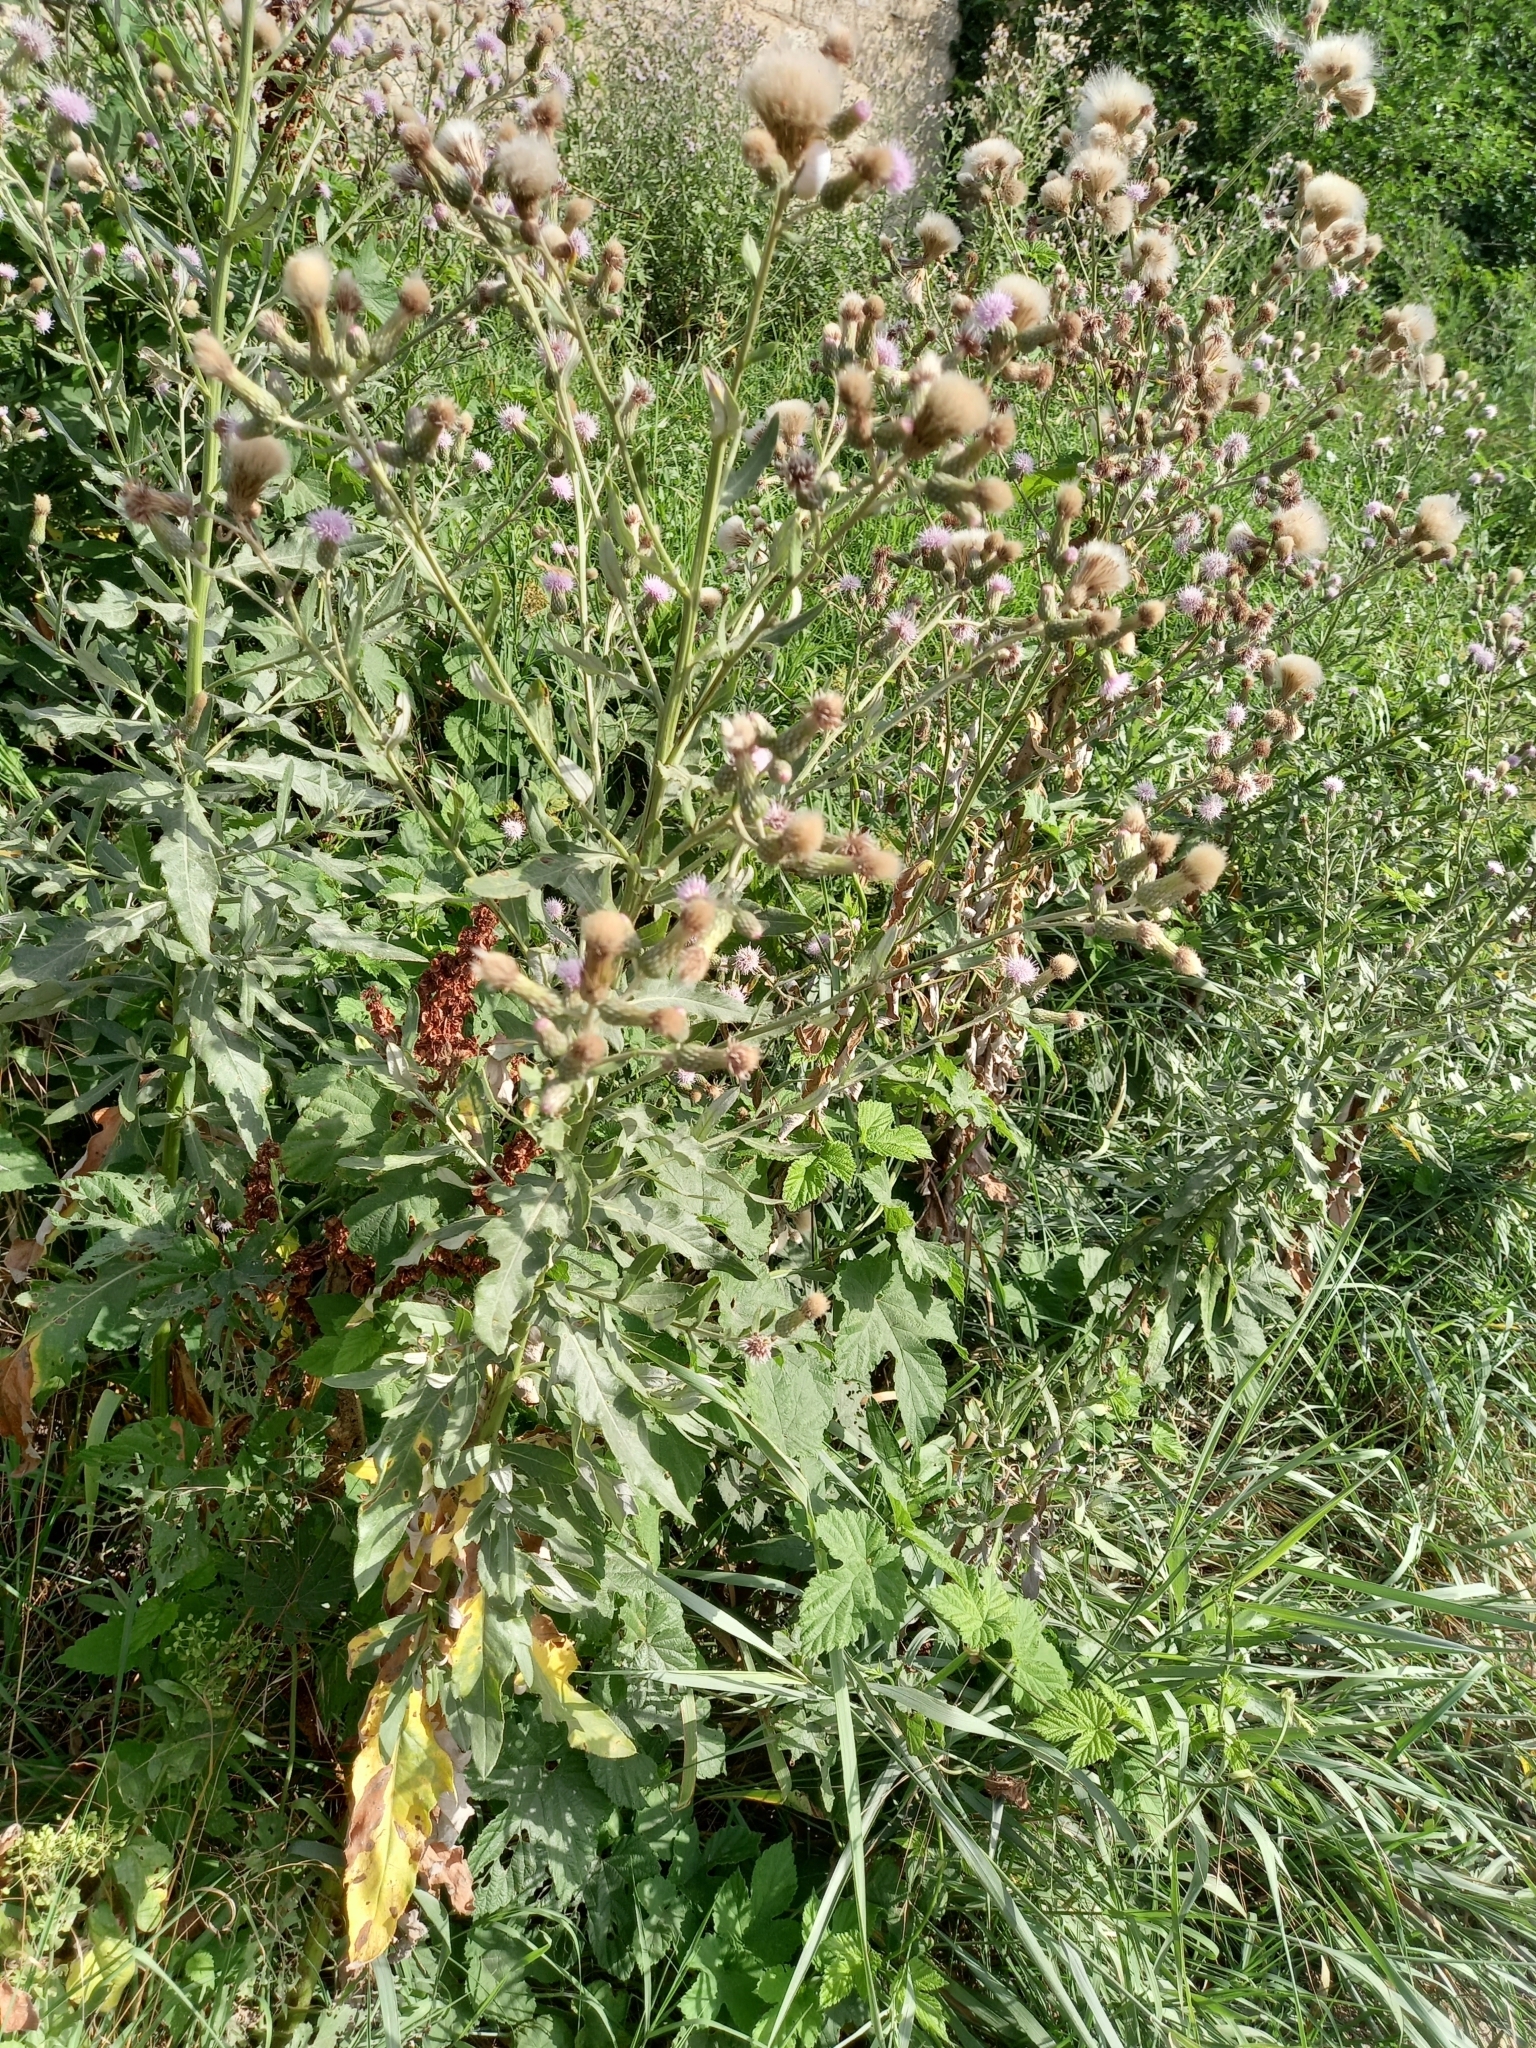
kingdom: Plantae
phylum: Tracheophyta
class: Magnoliopsida
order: Asterales
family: Asteraceae
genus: Cirsium
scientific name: Cirsium arvense
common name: Creeping thistle
